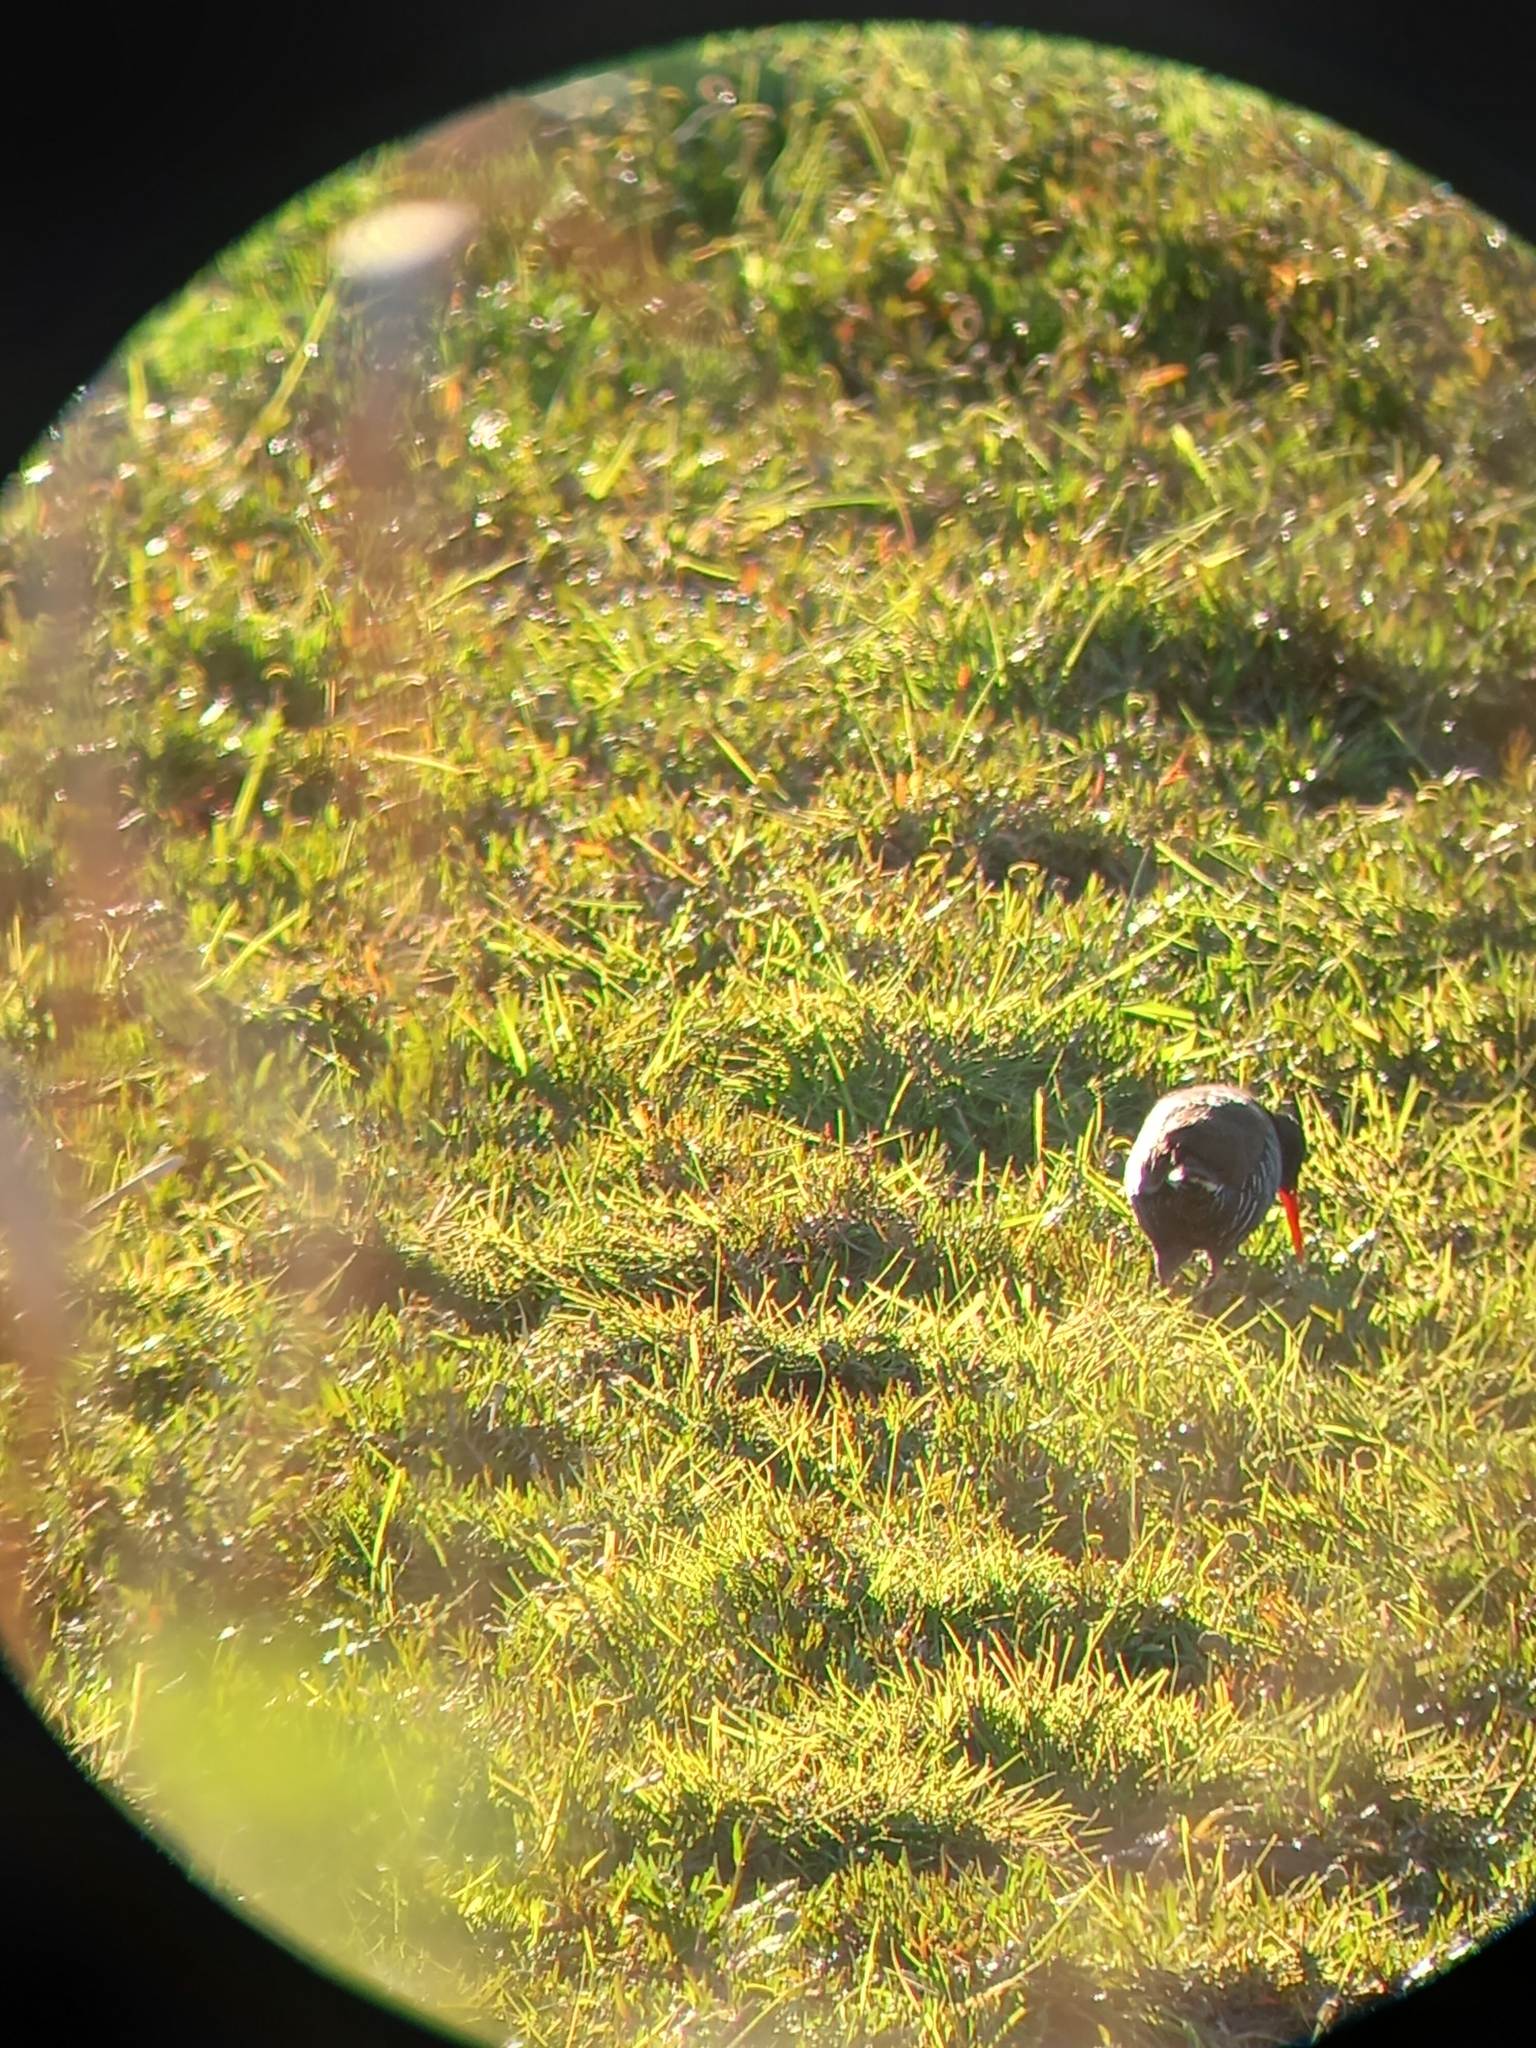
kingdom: Animalia
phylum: Chordata
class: Aves
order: Gruiformes
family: Rallidae
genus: Rallus
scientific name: Rallus caerulescens
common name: African rail
